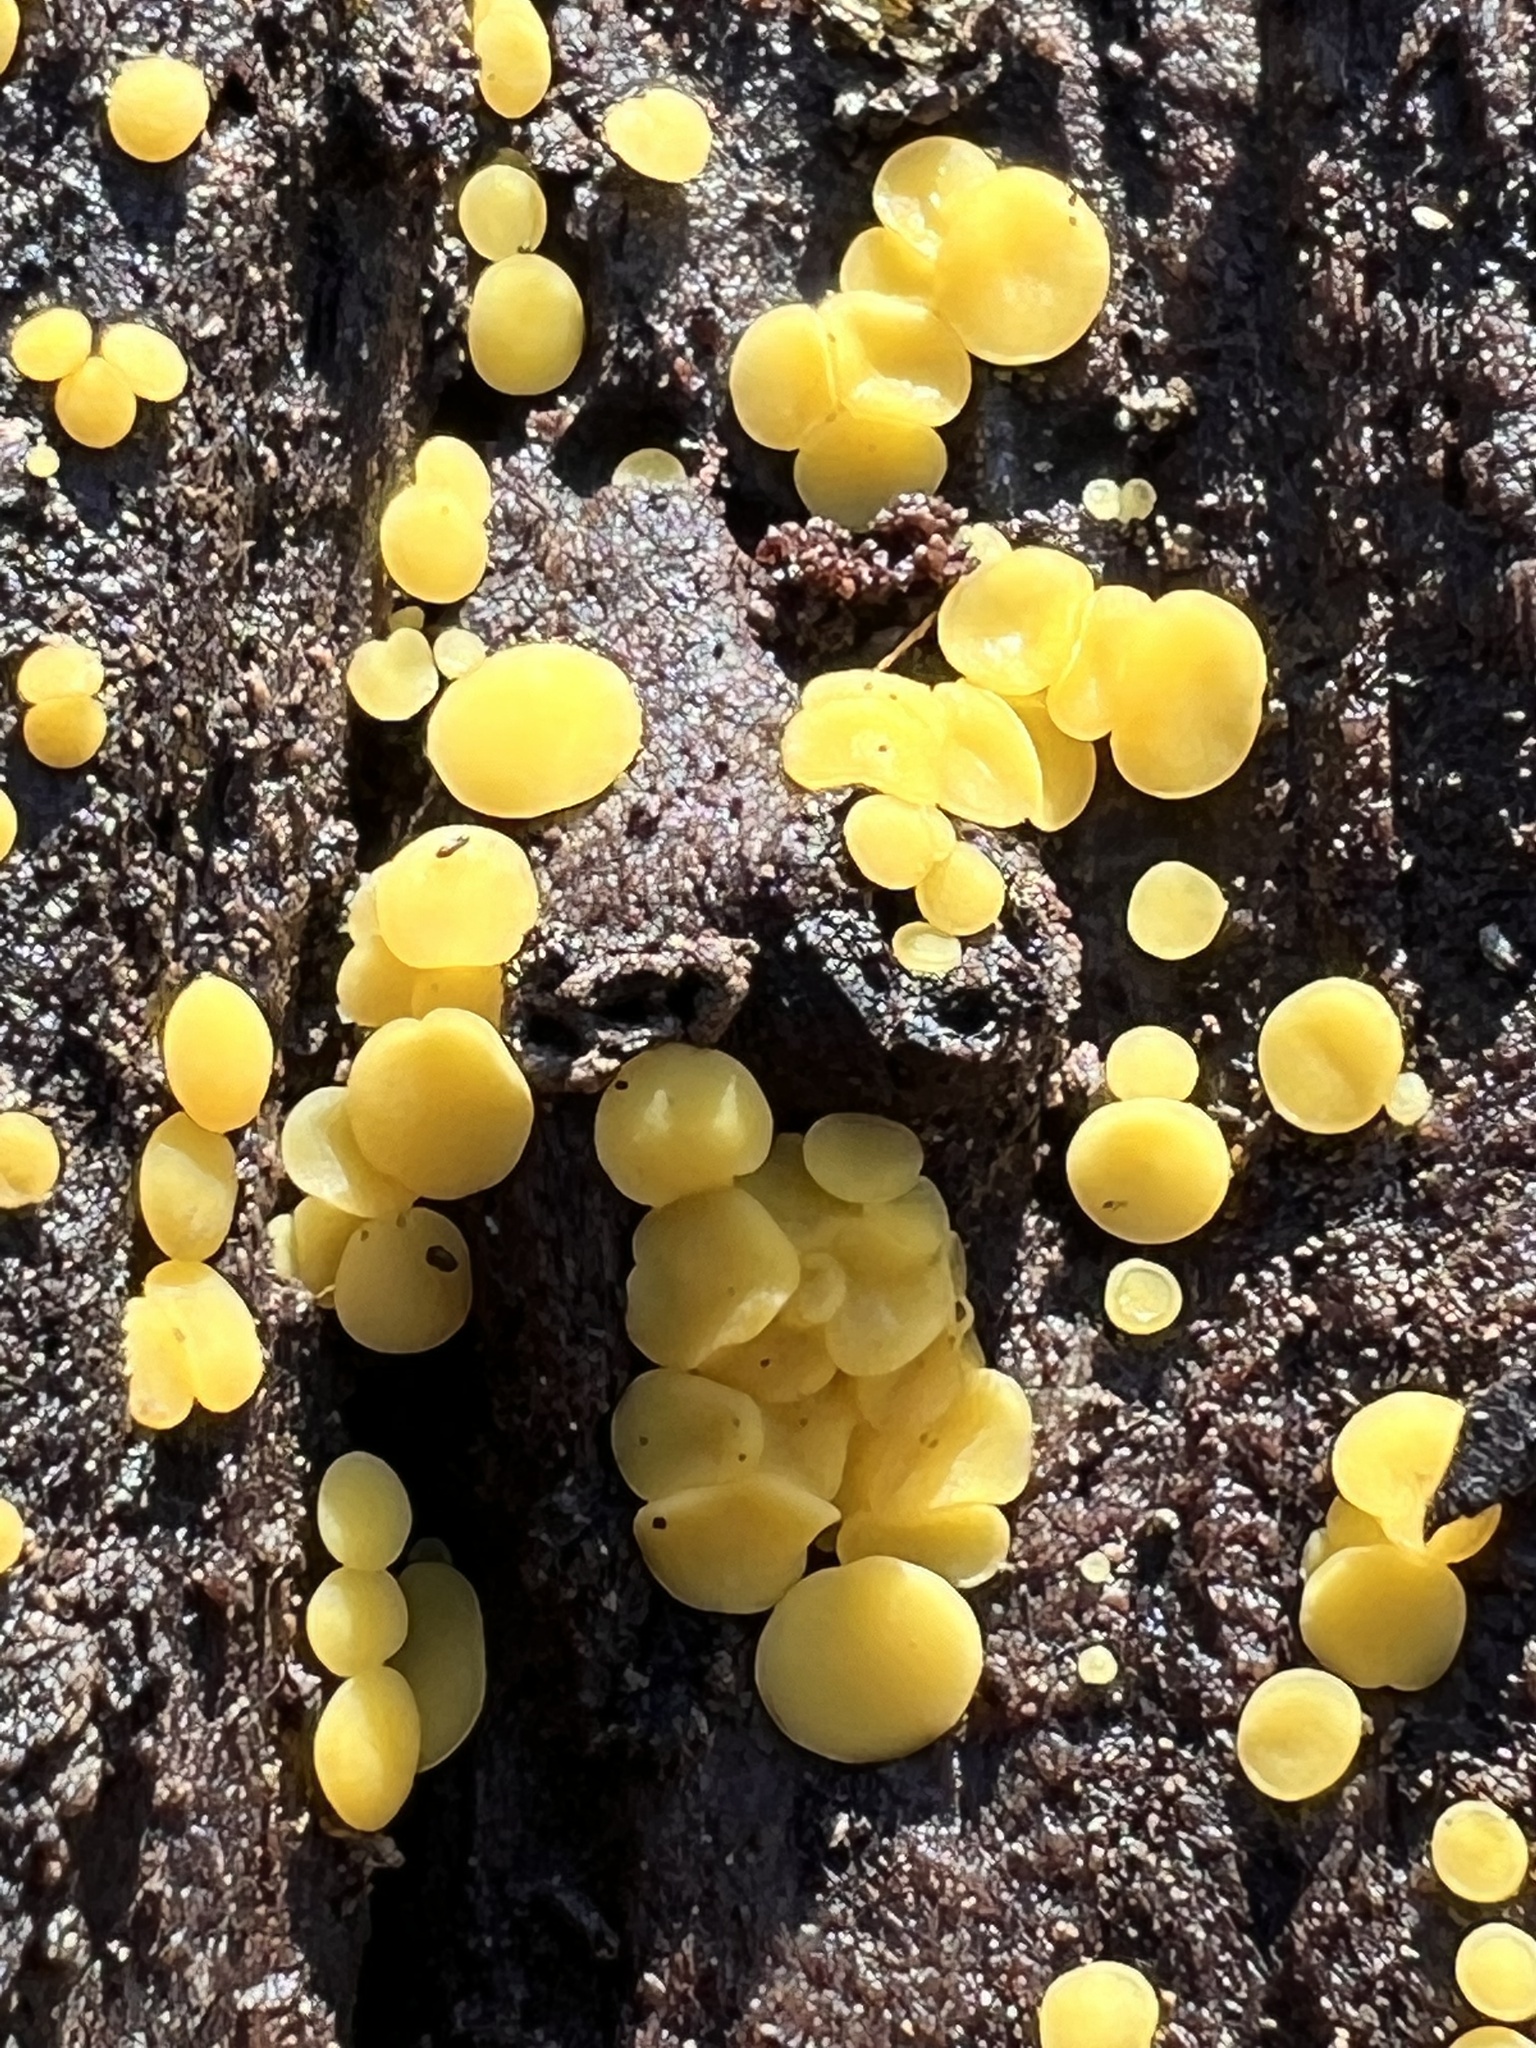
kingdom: Fungi
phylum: Ascomycota
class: Leotiomycetes
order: Helotiales
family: Pezizellaceae
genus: Calycina
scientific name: Calycina citrina
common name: Yellow fairy cups
